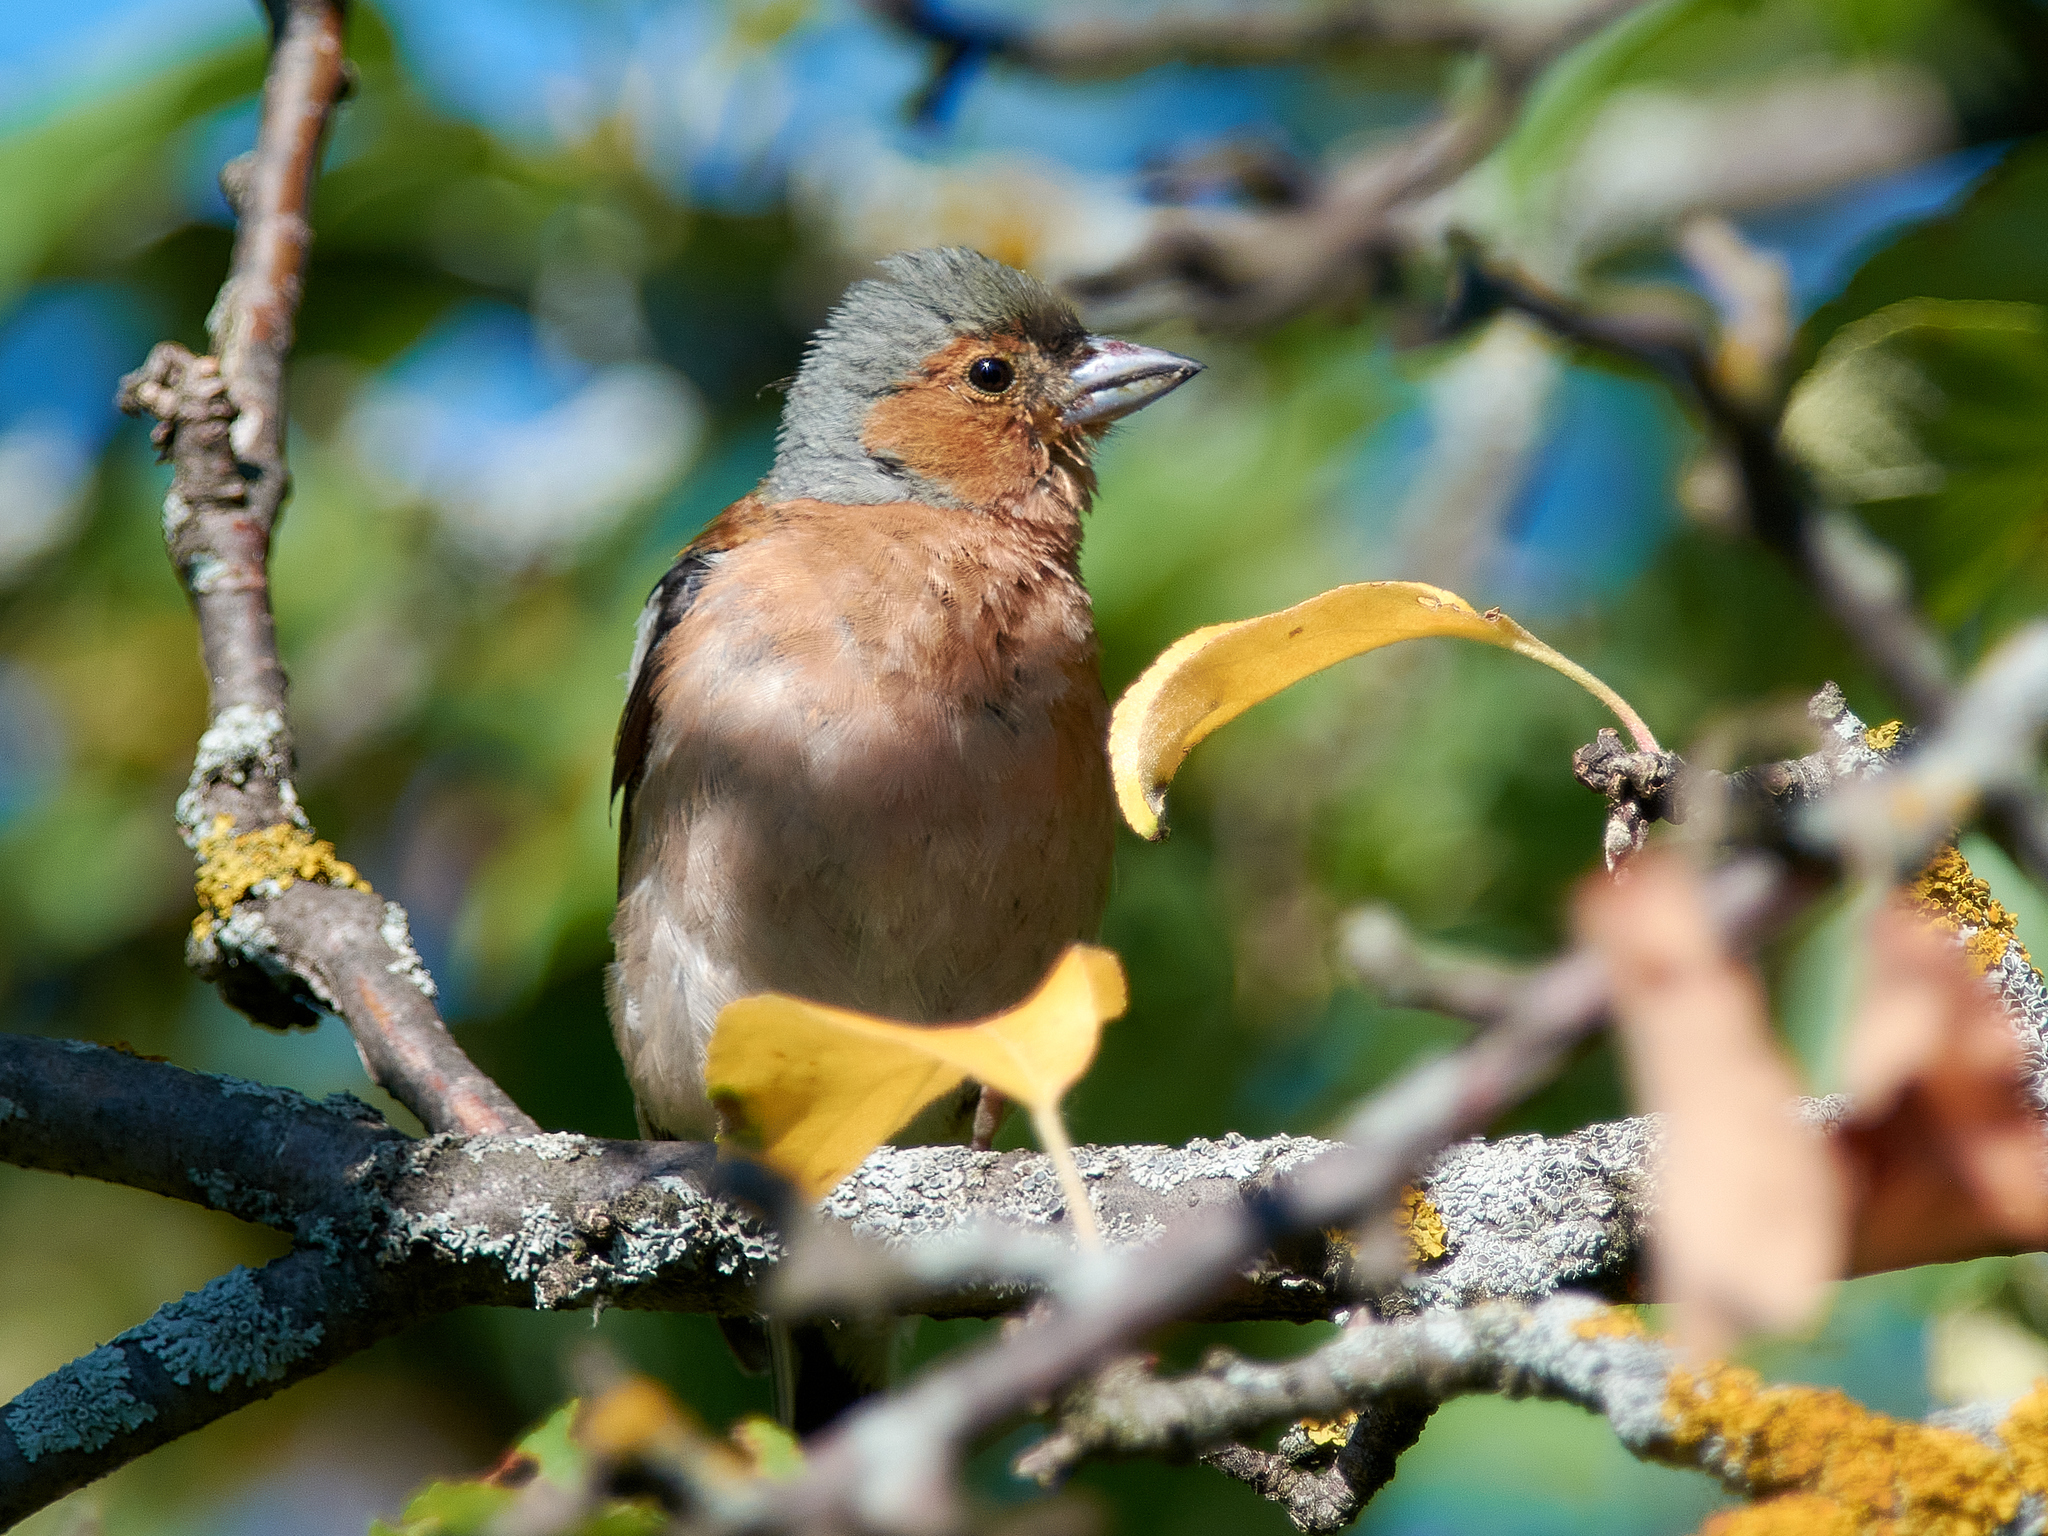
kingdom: Animalia
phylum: Chordata
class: Aves
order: Passeriformes
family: Fringillidae
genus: Fringilla
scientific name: Fringilla coelebs
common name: Common chaffinch
